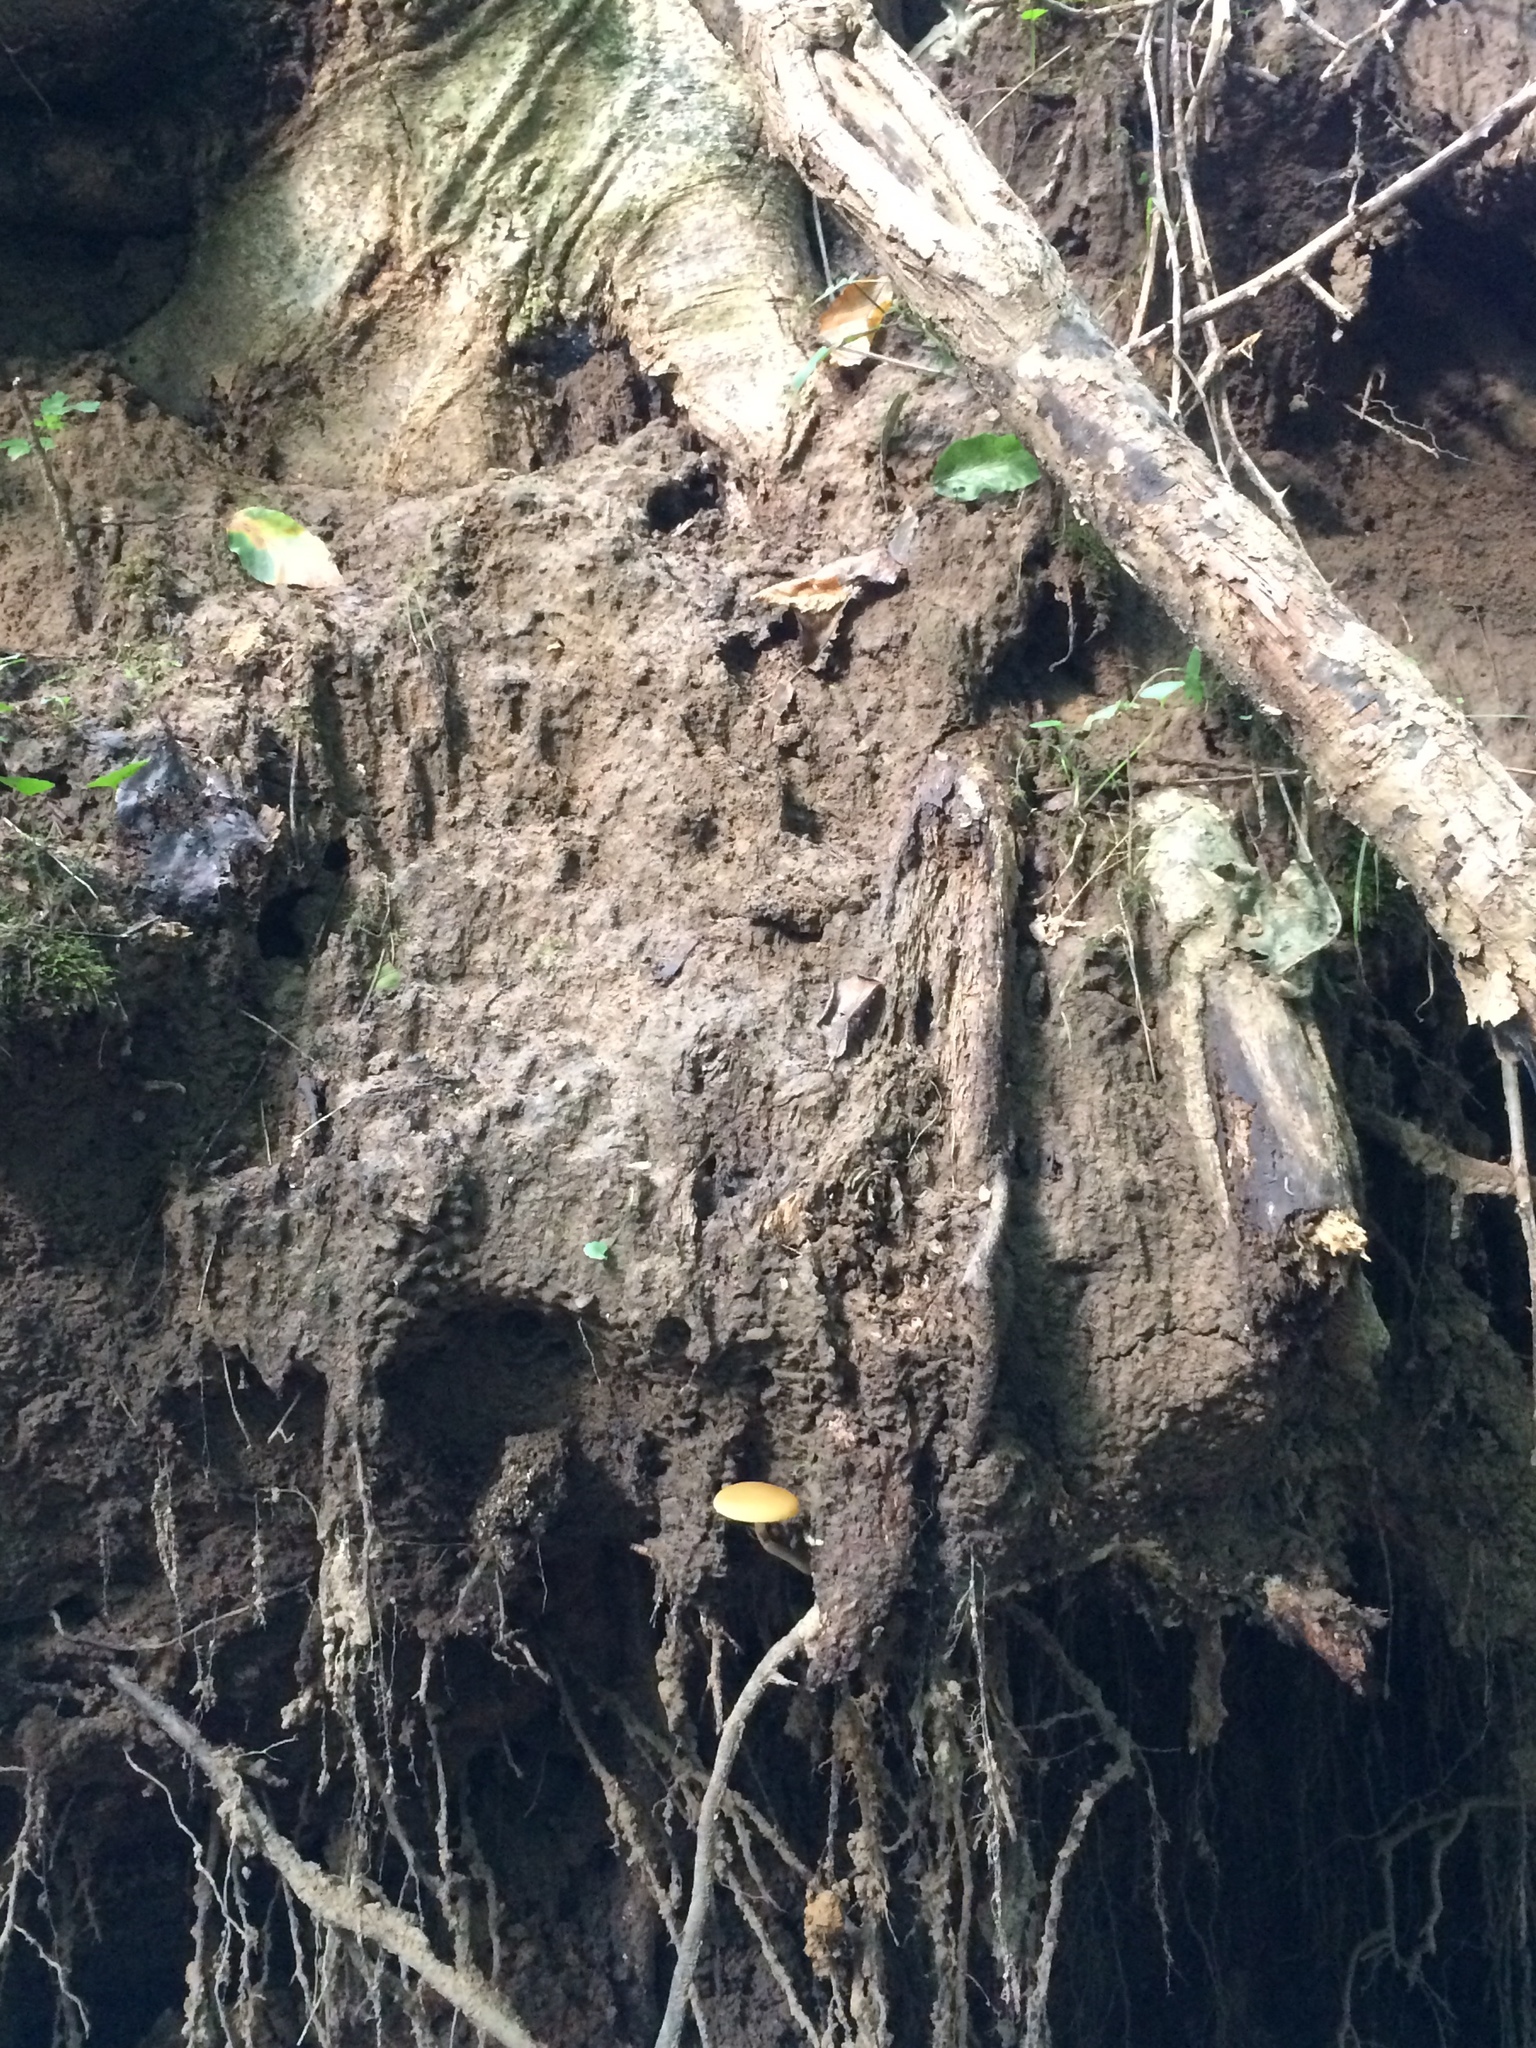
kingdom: Fungi
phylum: Basidiomycota
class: Agaricomycetes
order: Agaricales
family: Strophariaceae
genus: Agrocybe
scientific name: Agrocybe acericola
